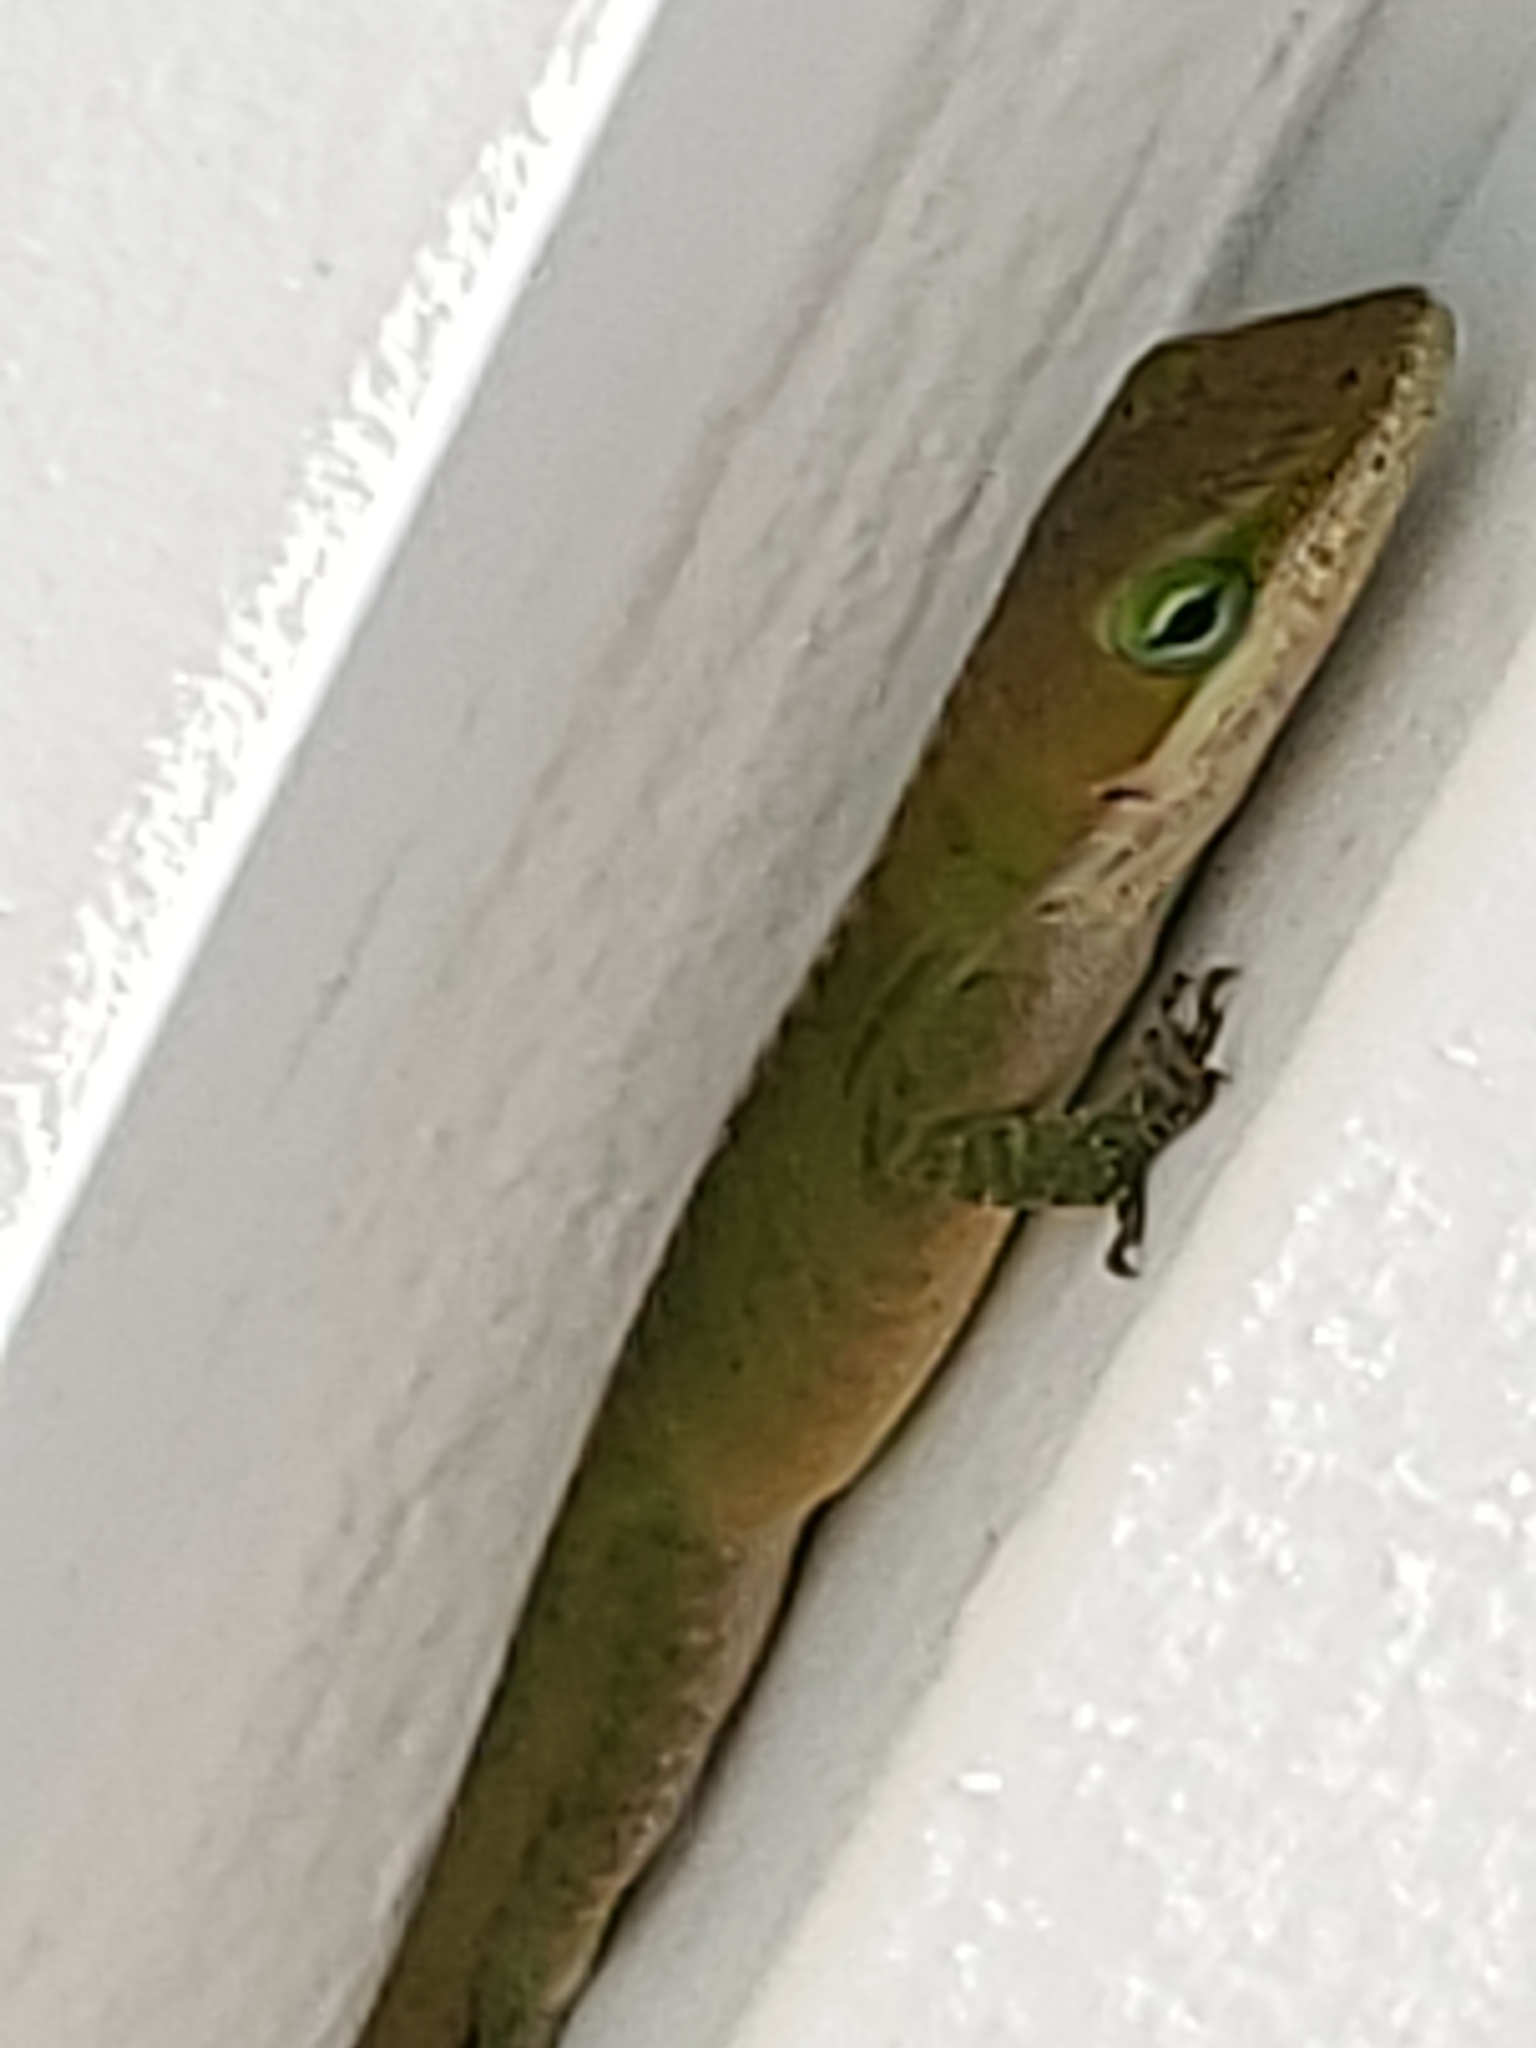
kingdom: Animalia
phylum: Chordata
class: Squamata
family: Dactyloidae
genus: Anolis
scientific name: Anolis carolinensis
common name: Green anole
